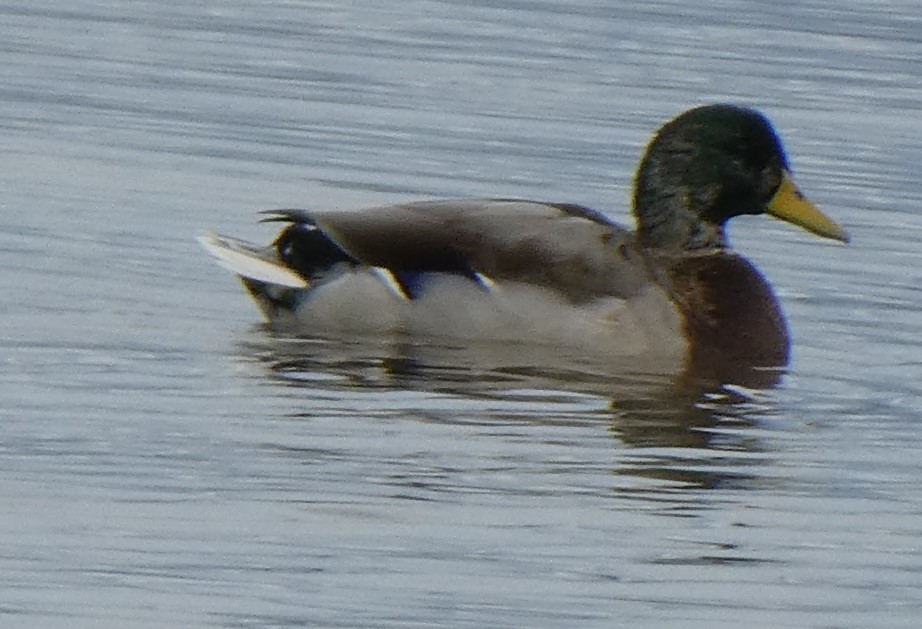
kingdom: Animalia
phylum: Chordata
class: Aves
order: Anseriformes
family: Anatidae
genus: Anas
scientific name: Anas platyrhynchos
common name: Mallard
